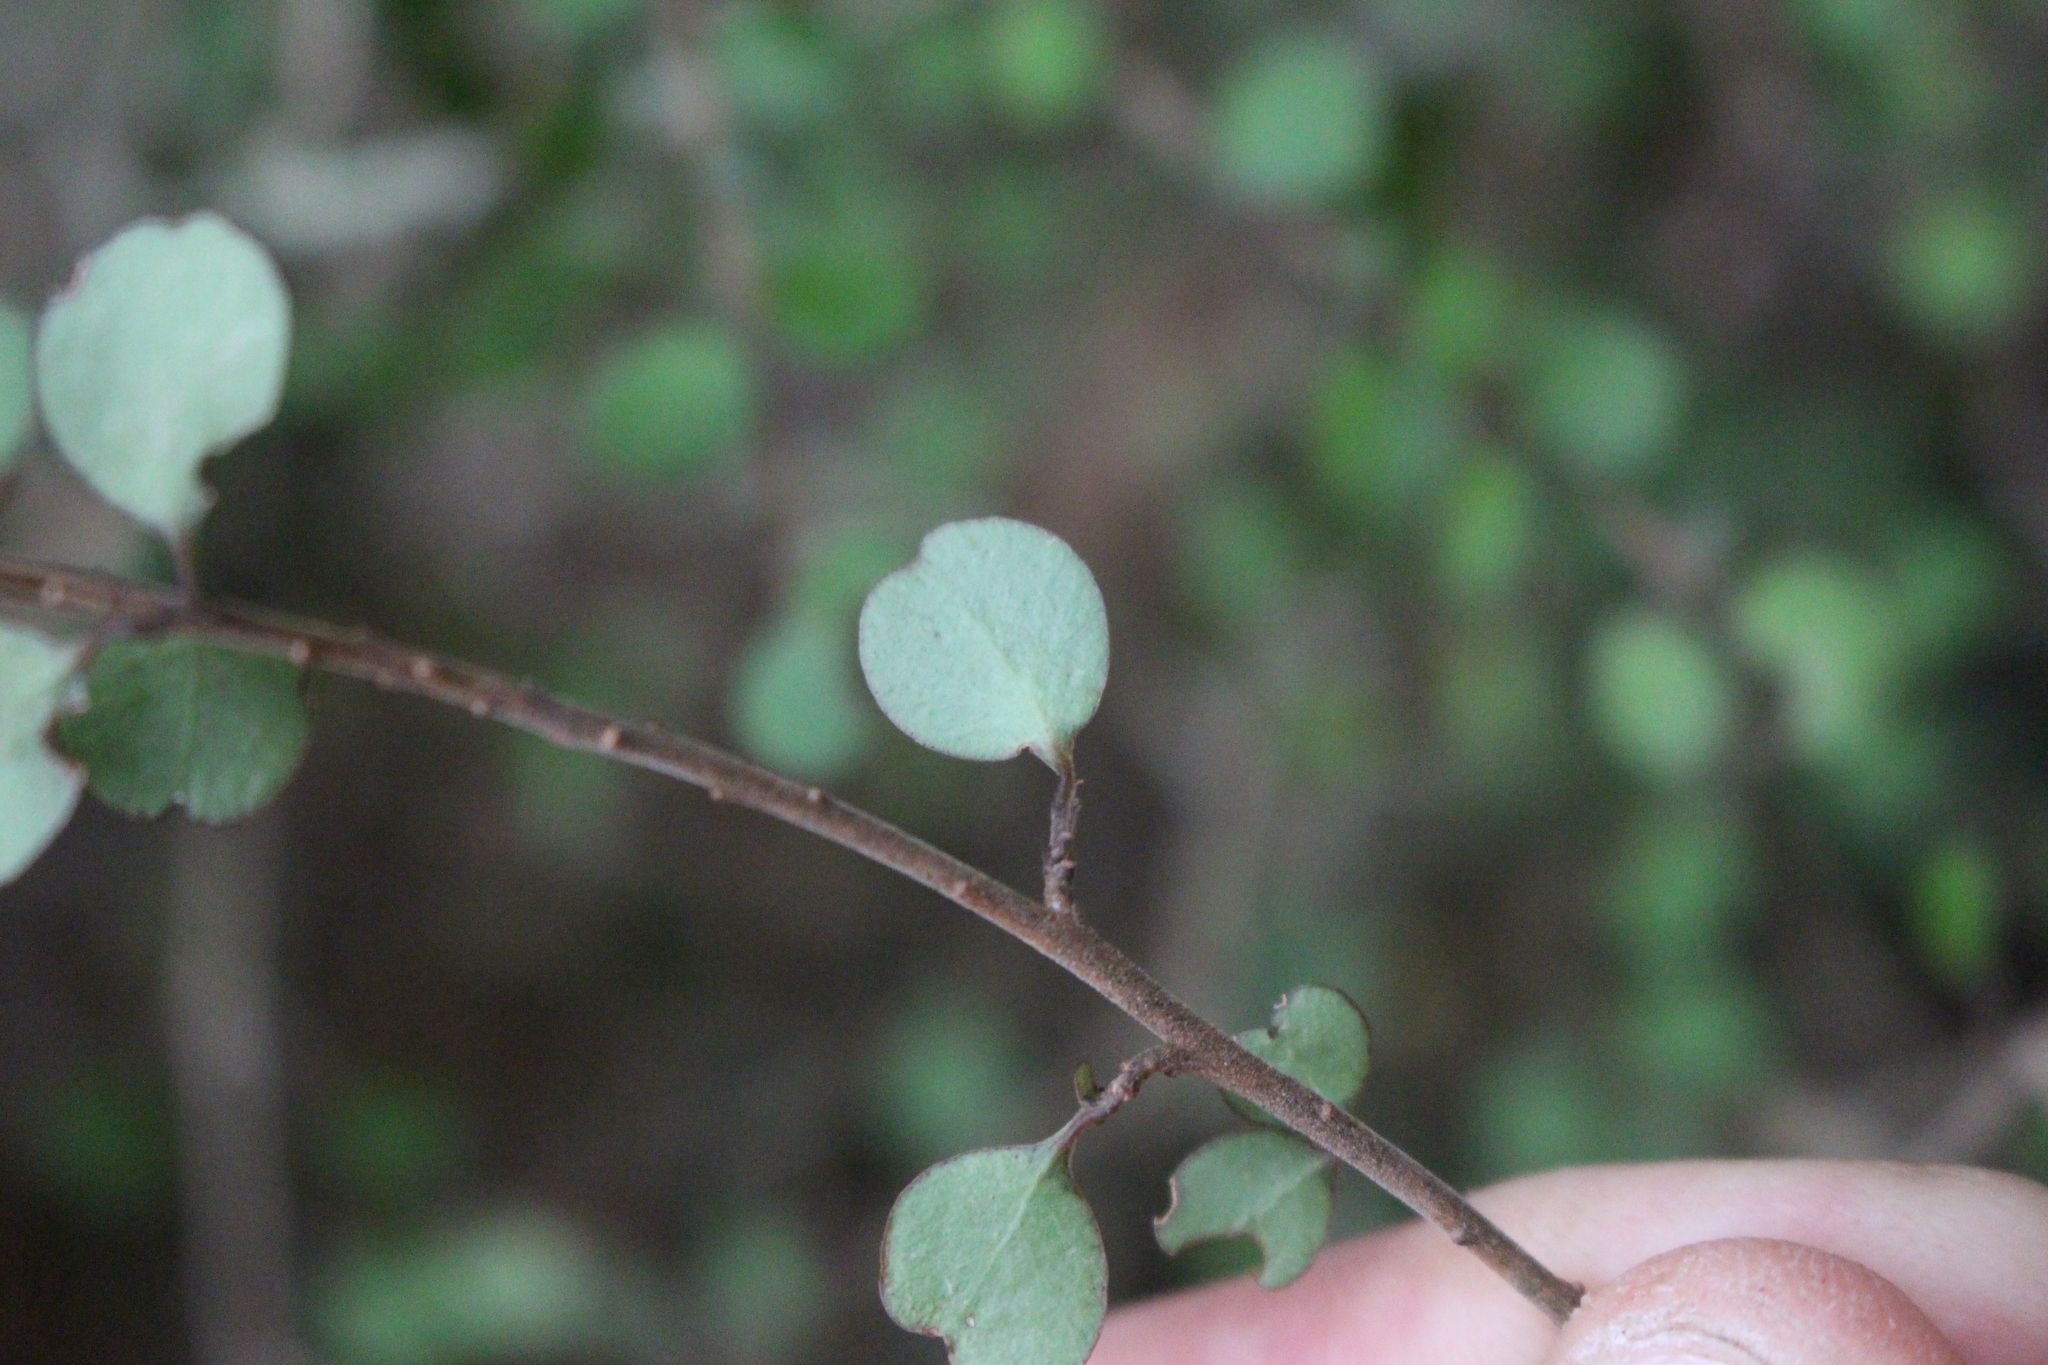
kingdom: Plantae
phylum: Tracheophyta
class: Magnoliopsida
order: Ericales
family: Primulaceae
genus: Myrsine
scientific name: Myrsine divaricata
